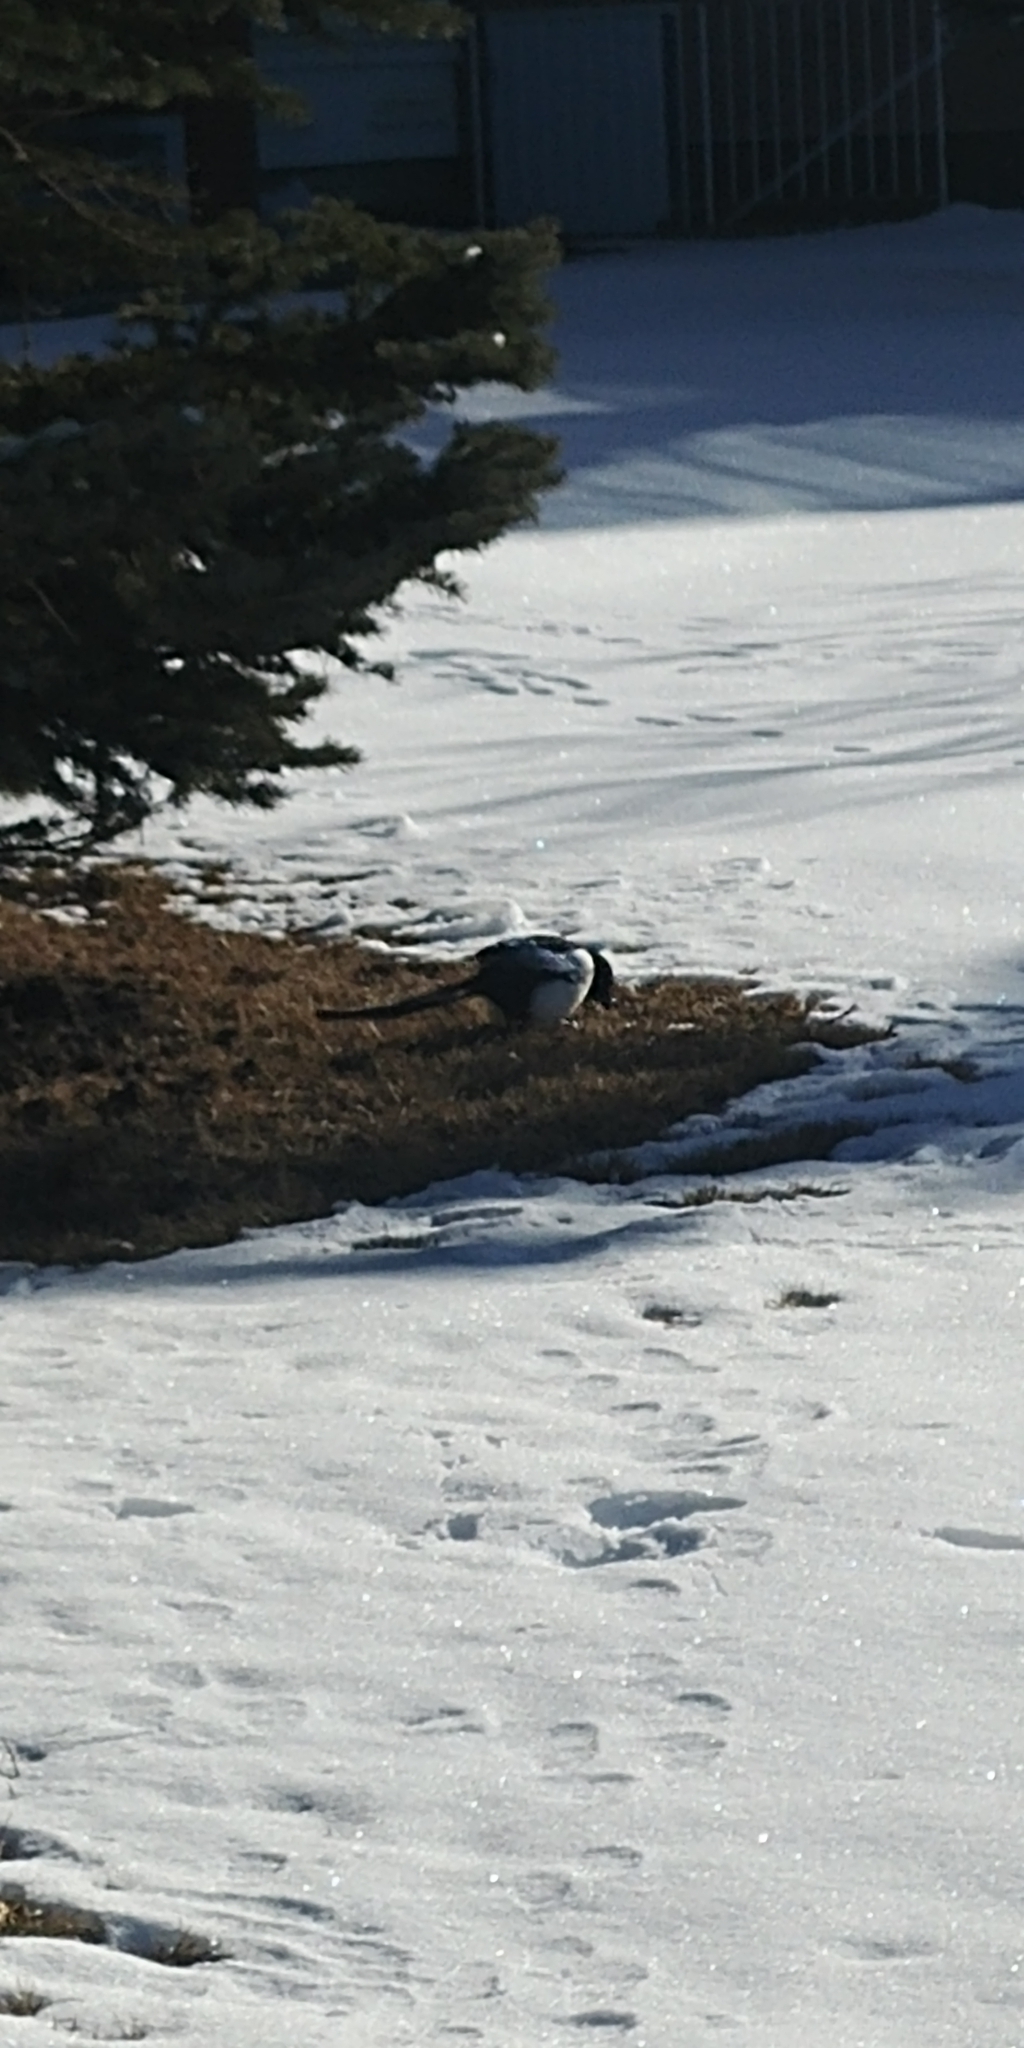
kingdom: Animalia
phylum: Chordata
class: Aves
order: Passeriformes
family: Corvidae
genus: Pica
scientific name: Pica hudsonia
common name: Black-billed magpie
